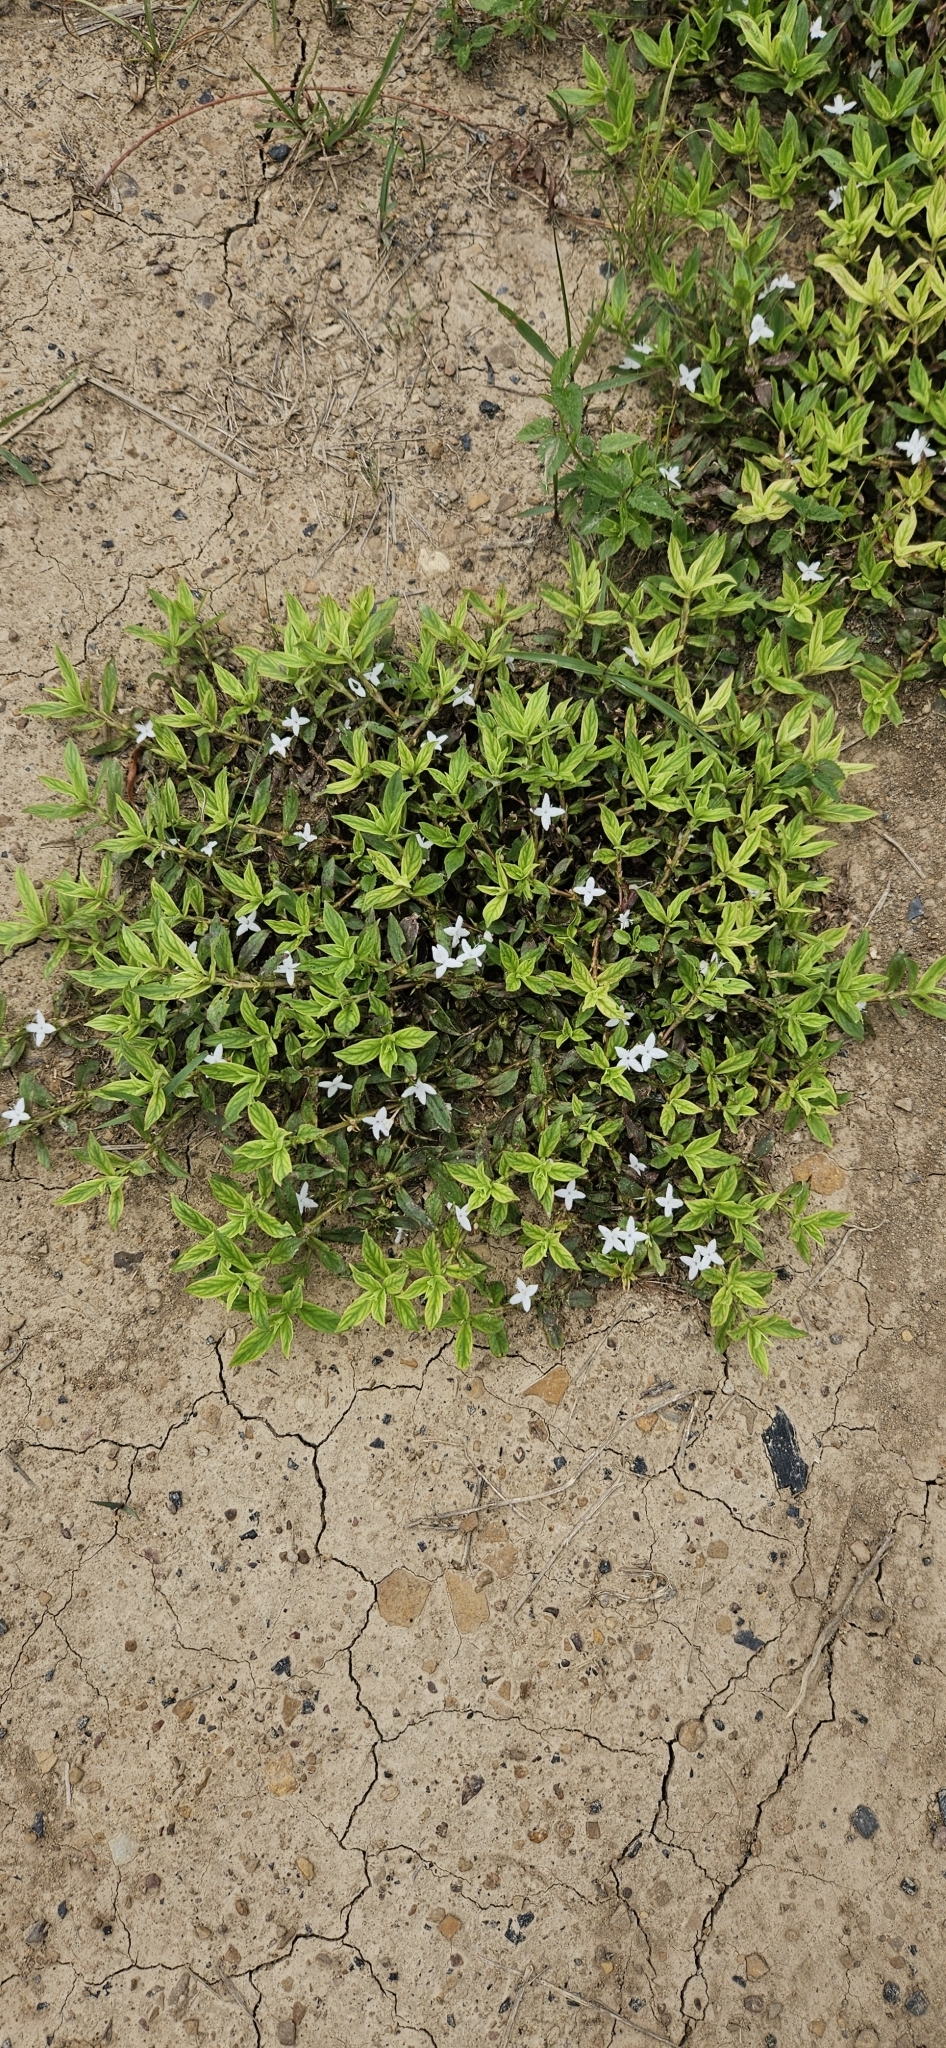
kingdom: Plantae
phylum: Tracheophyta
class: Magnoliopsida
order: Gentianales
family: Rubiaceae
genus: Diodia
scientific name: Diodia virginiana
